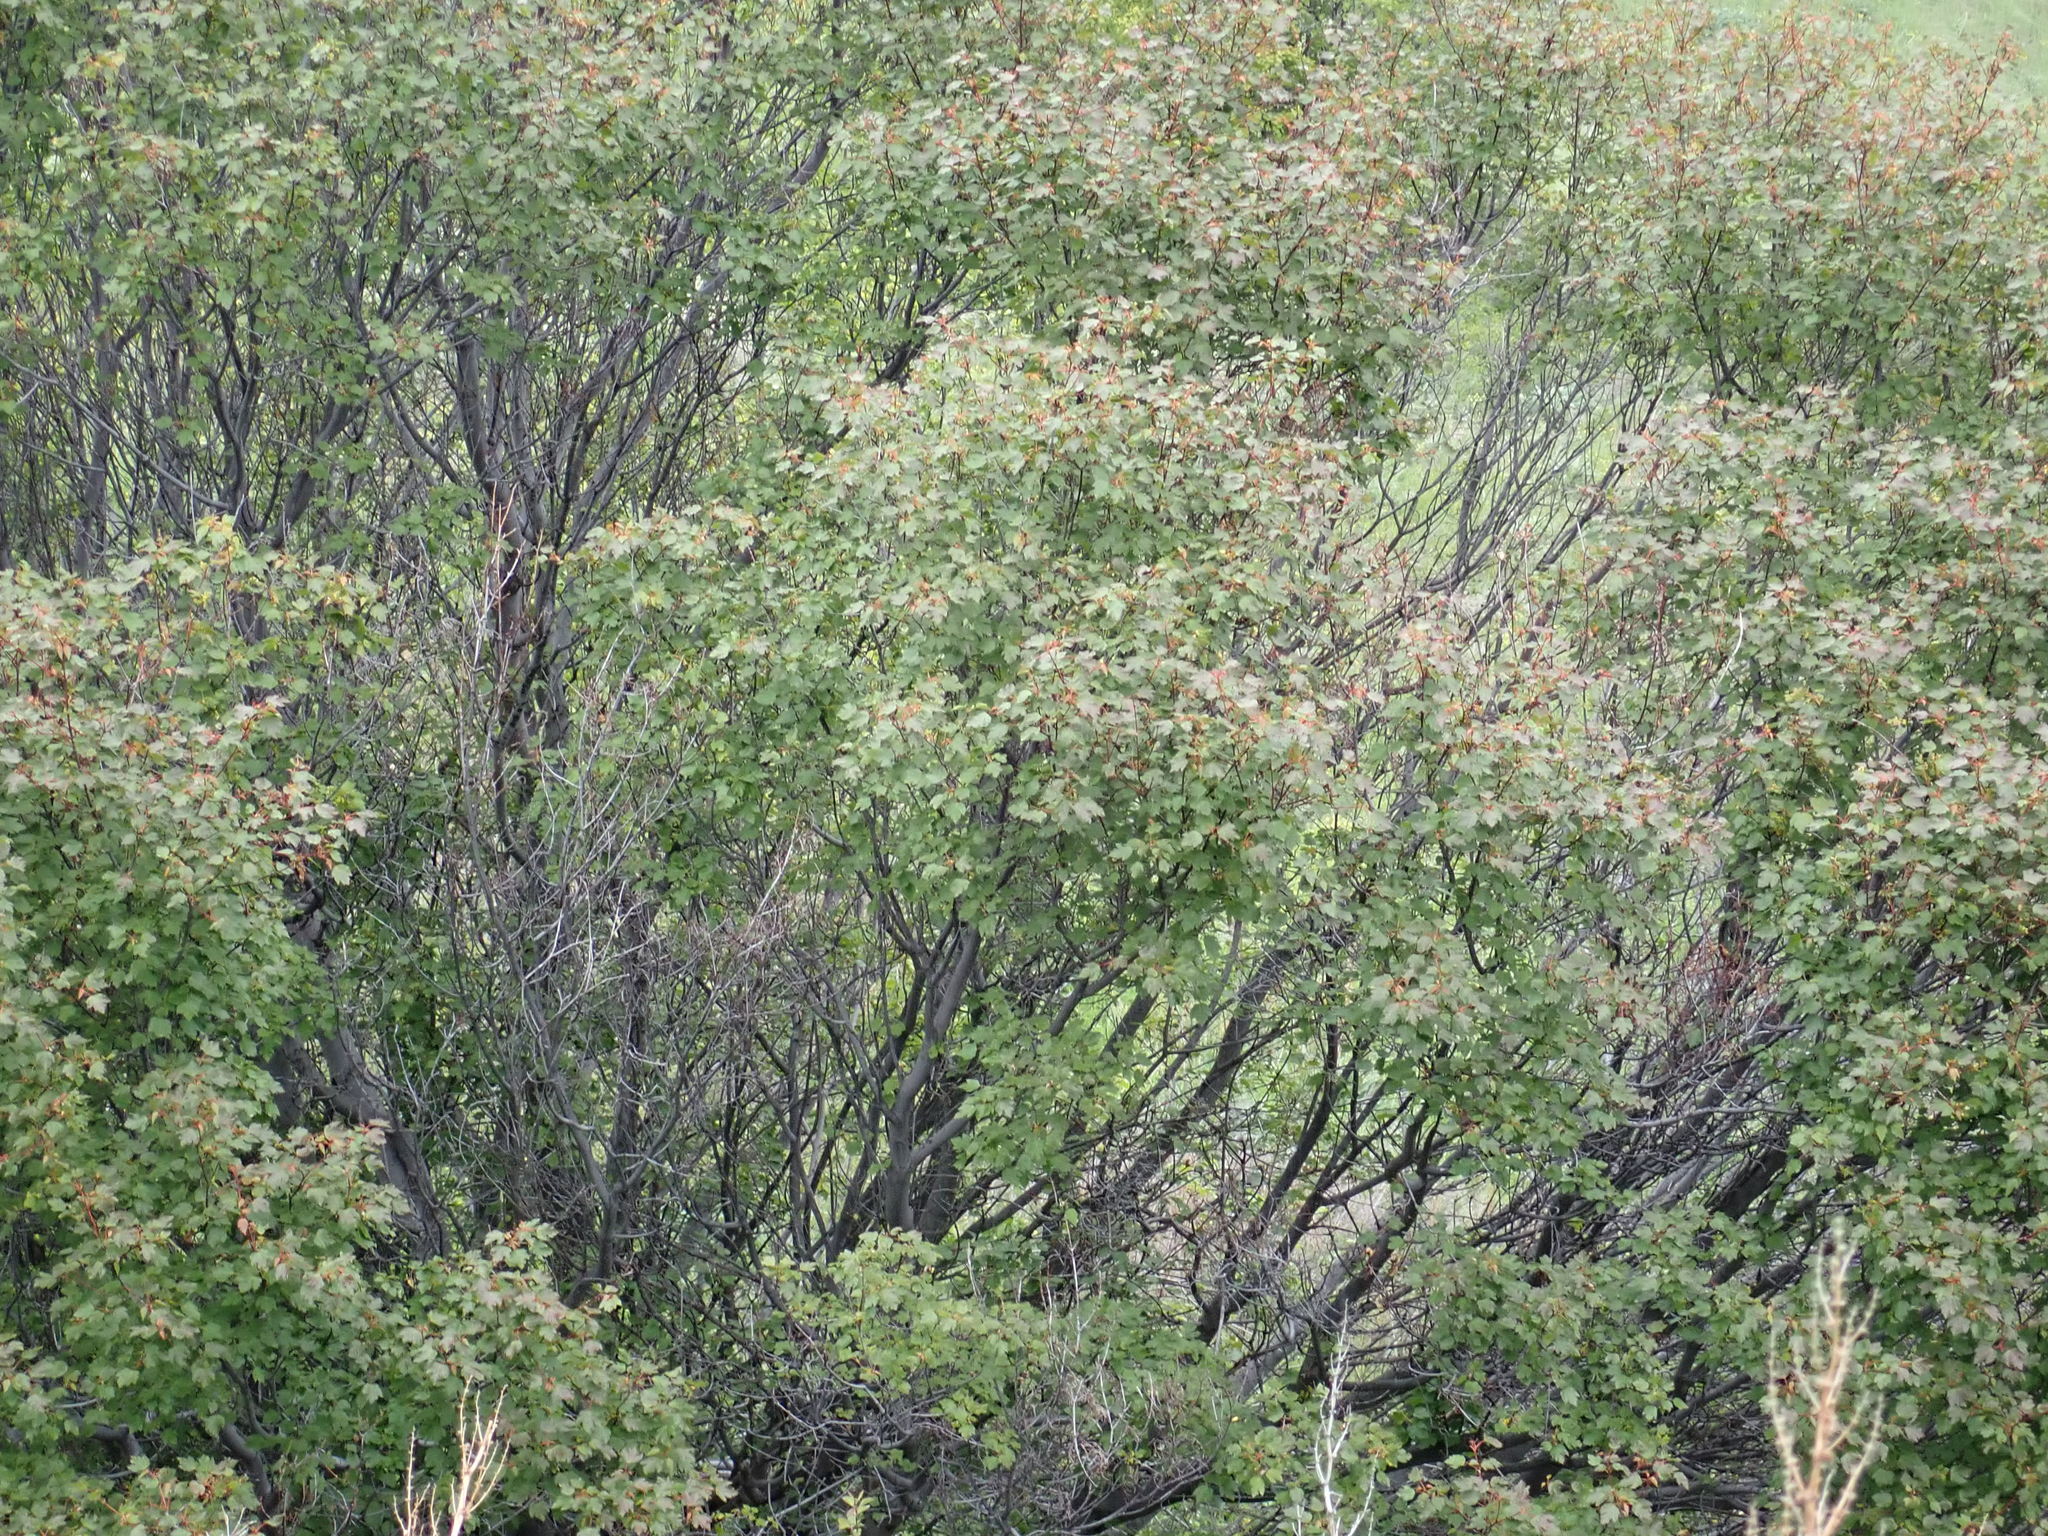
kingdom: Plantae
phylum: Tracheophyta
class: Magnoliopsida
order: Sapindales
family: Sapindaceae
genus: Acer
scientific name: Acer glabrum
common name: Rocky mountain maple
